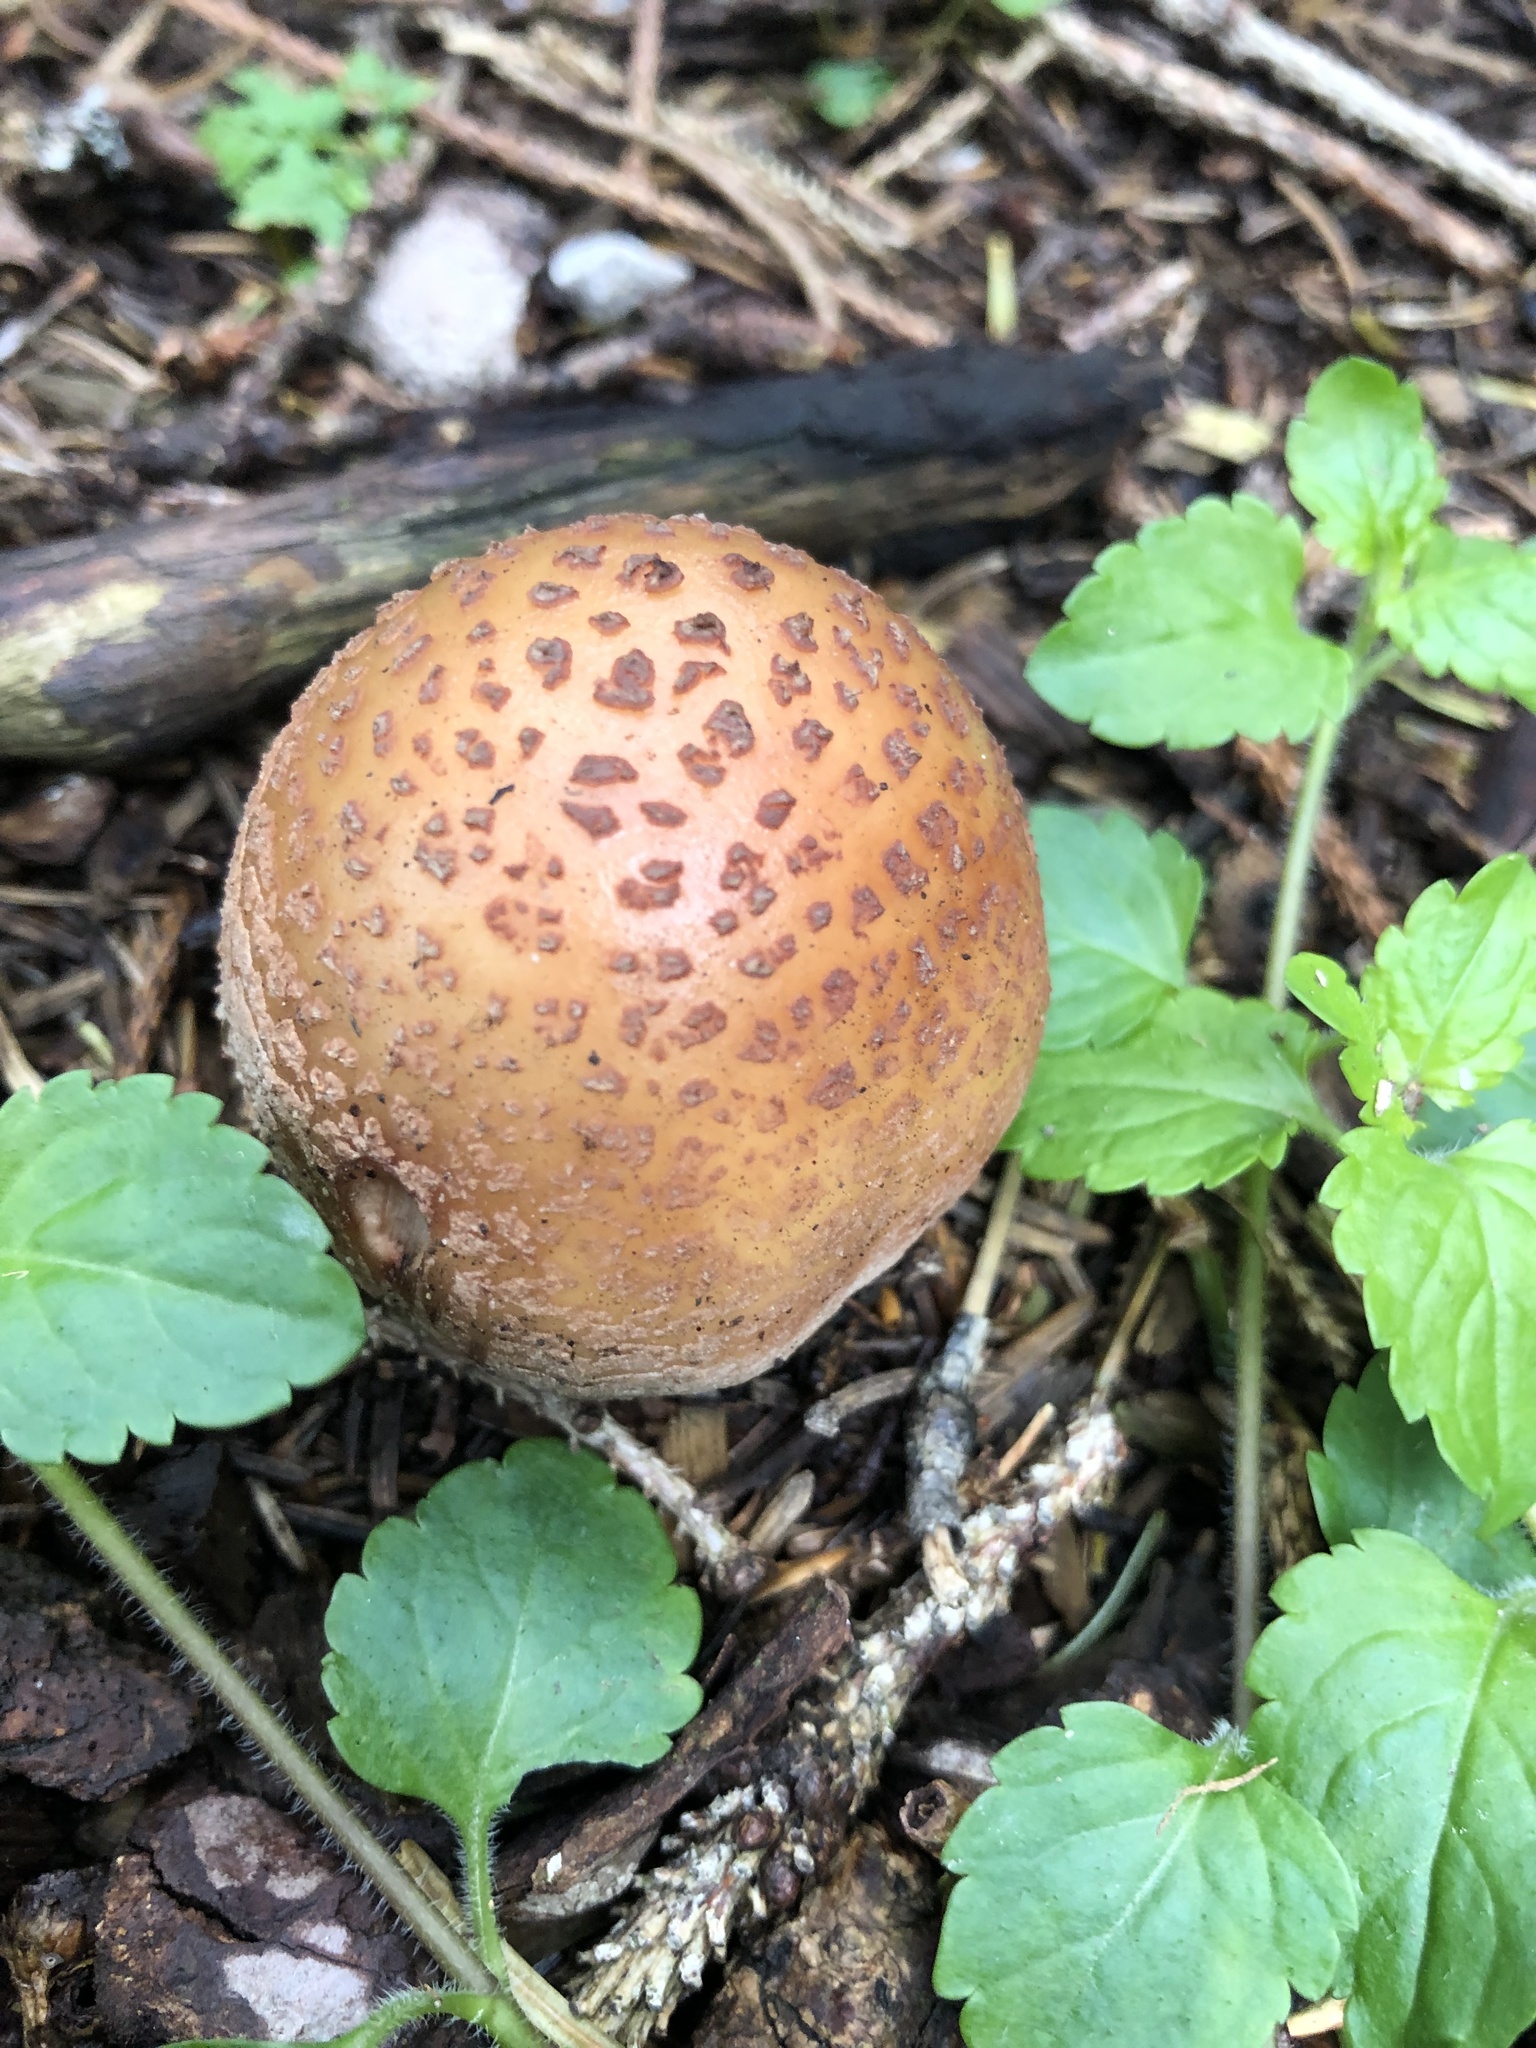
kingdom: Fungi
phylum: Basidiomycota
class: Agaricomycetes
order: Agaricales
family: Amanitaceae
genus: Amanita
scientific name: Amanita rubescens
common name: Blusher
